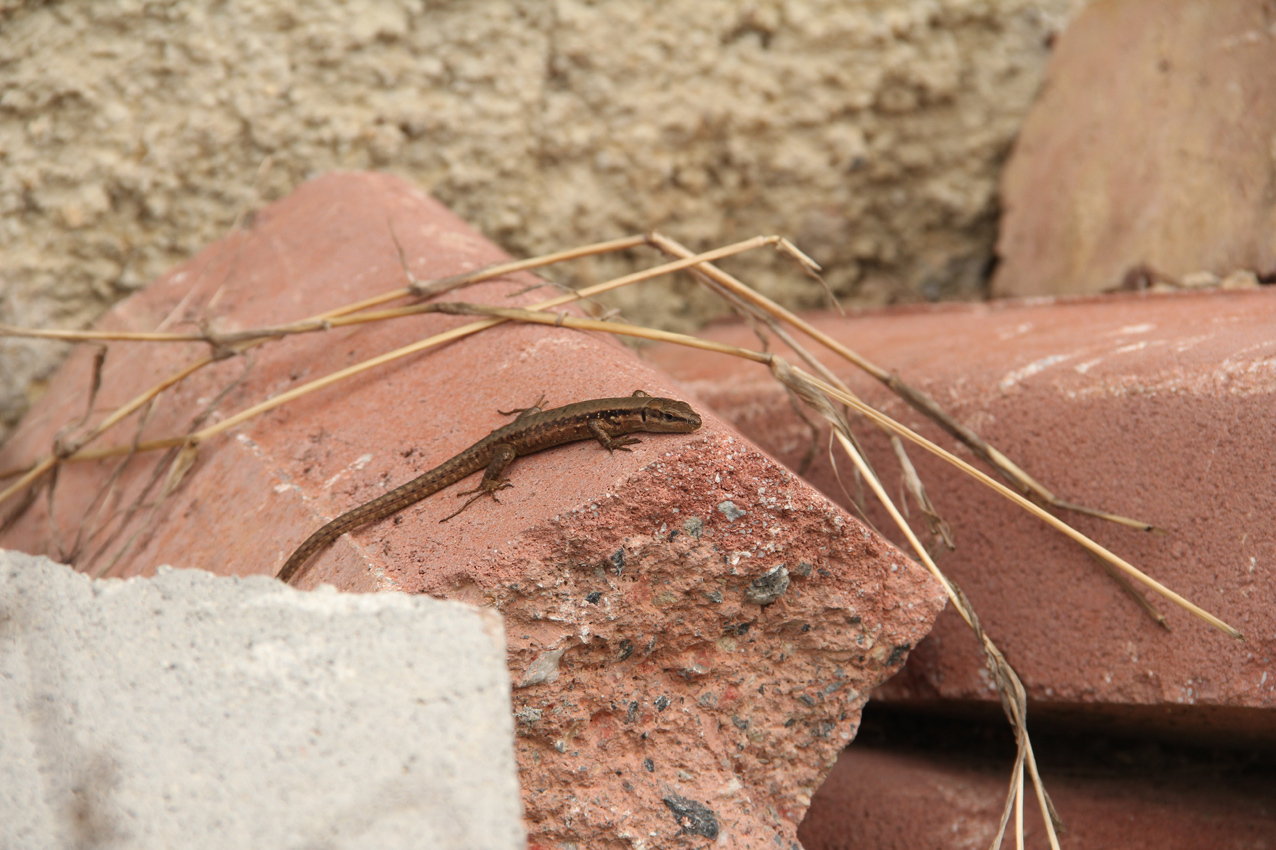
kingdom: Animalia
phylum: Chordata
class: Squamata
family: Lacertidae
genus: Phoenicolacerta
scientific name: Phoenicolacerta laevis
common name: Lebanon lizard
